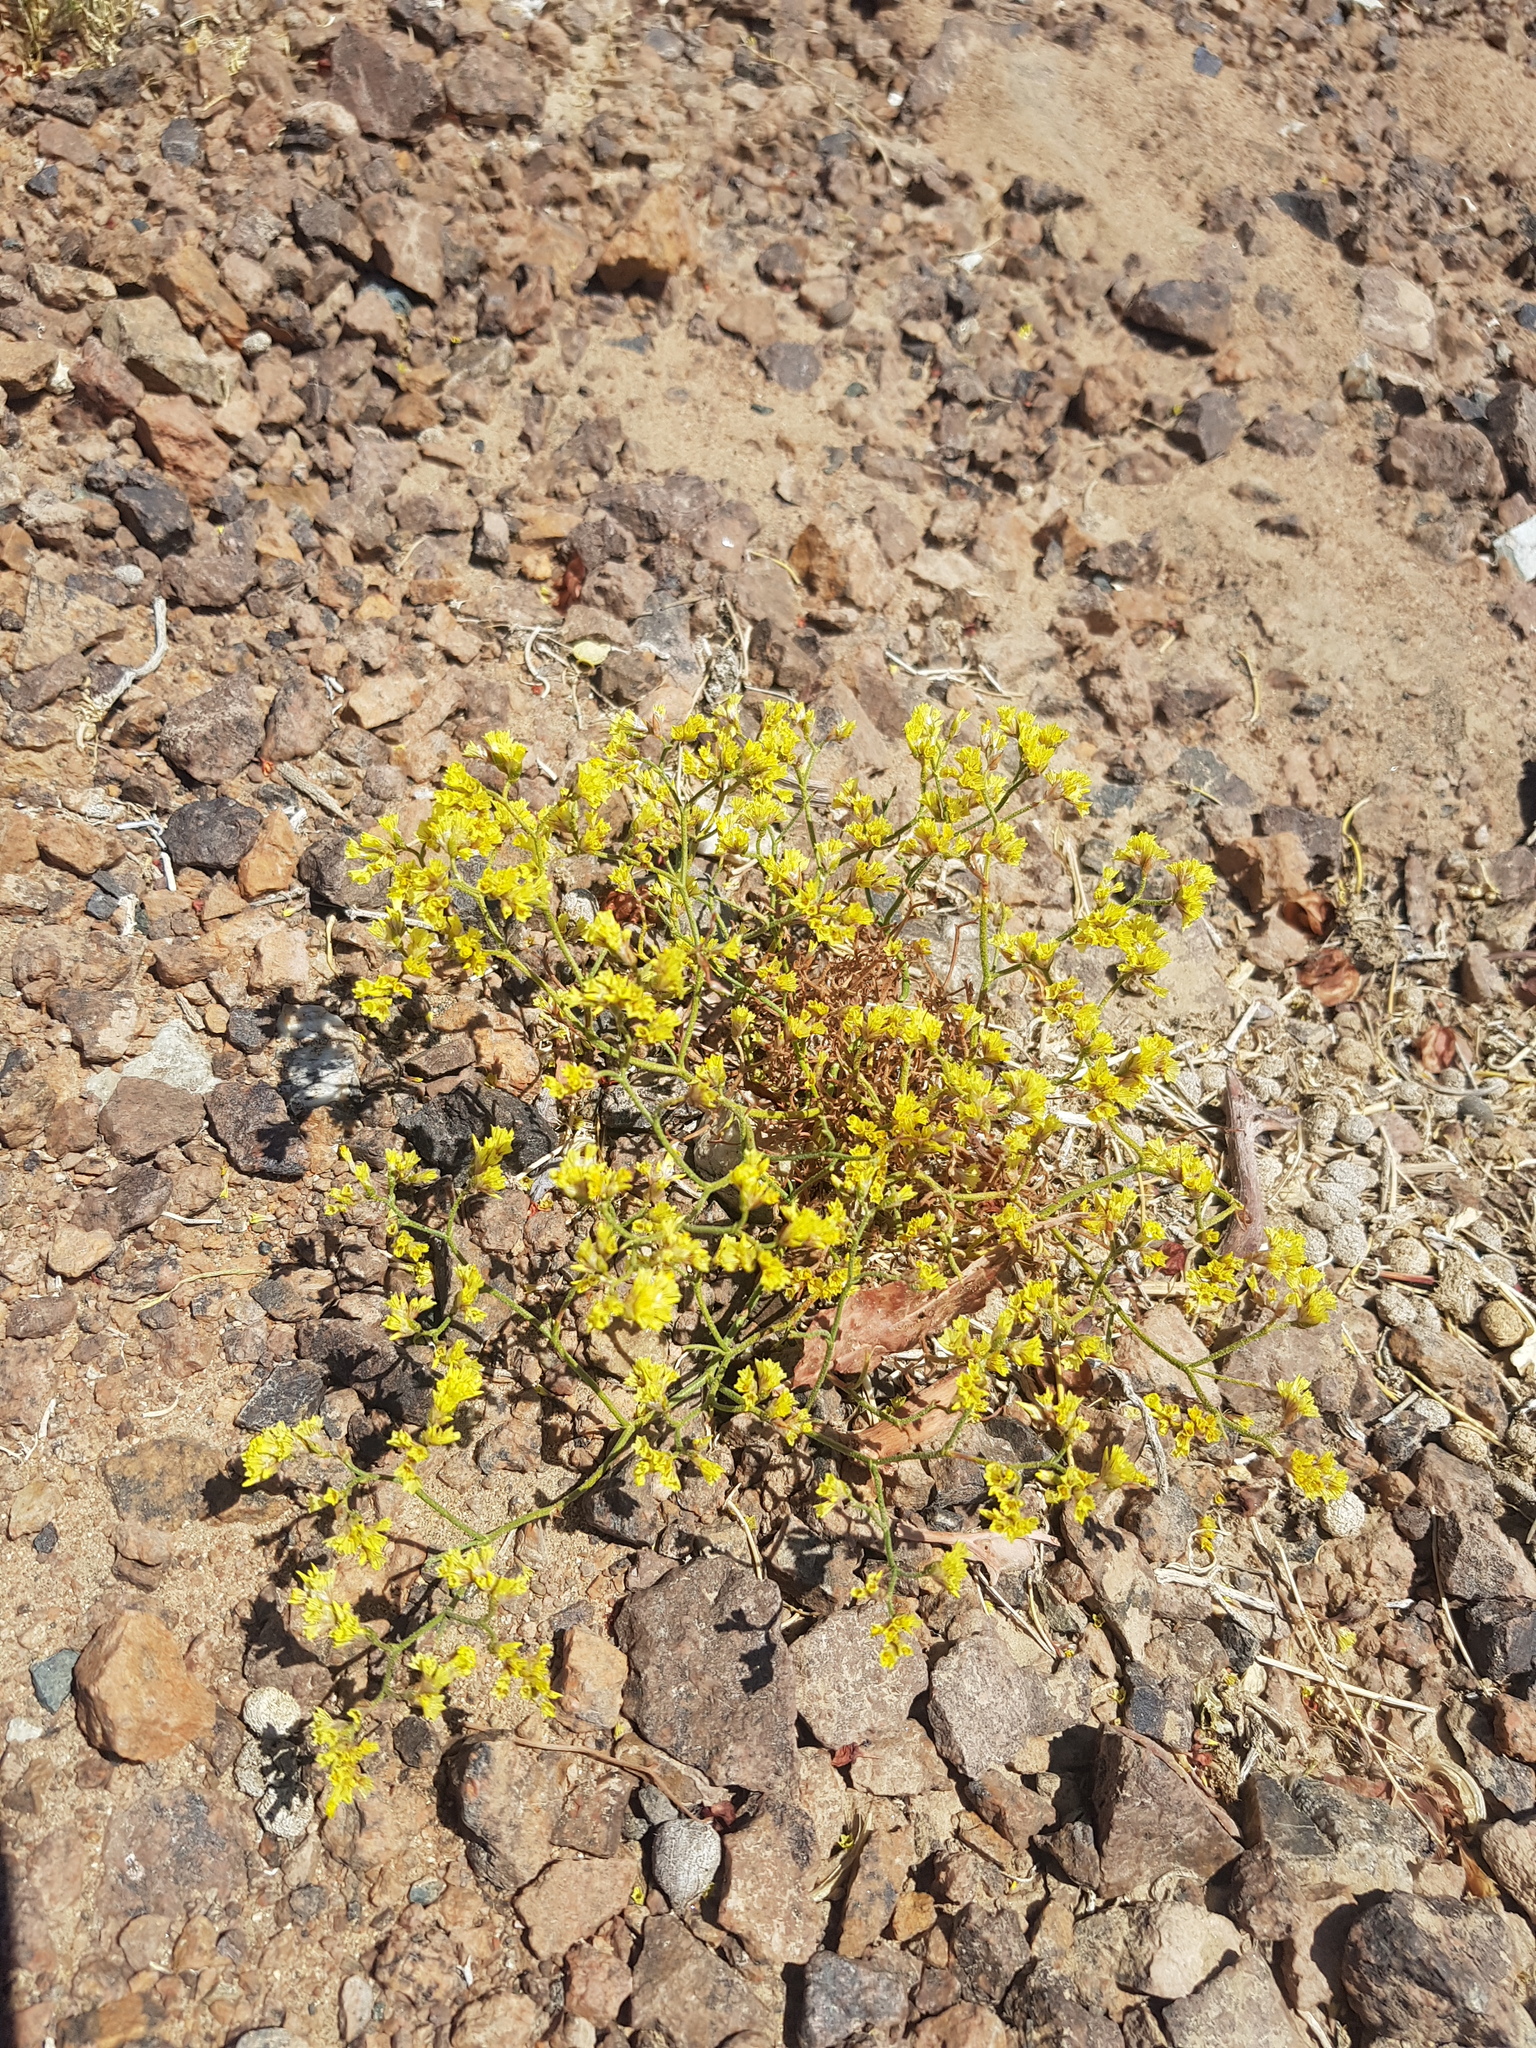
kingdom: Plantae
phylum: Tracheophyta
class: Magnoliopsida
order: Caryophyllales
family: Plumbaginaceae
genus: Limonium
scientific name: Limonium aureum
